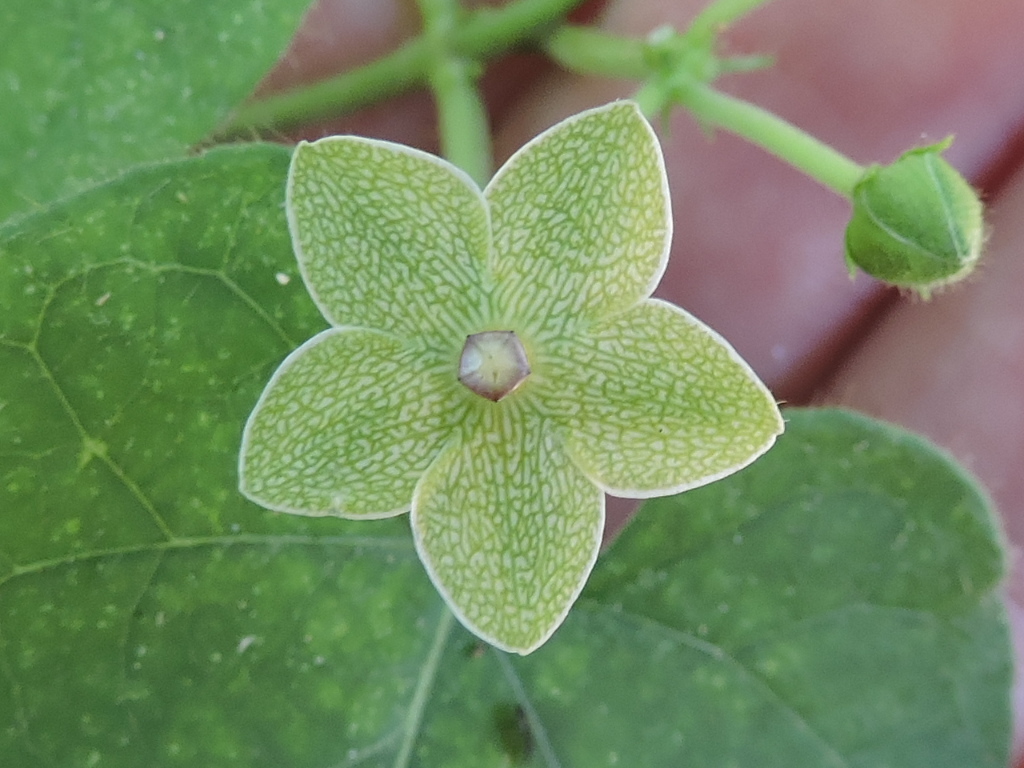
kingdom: Plantae
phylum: Tracheophyta
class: Magnoliopsida
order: Gentianales
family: Apocynaceae
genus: Dictyanthus
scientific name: Dictyanthus reticulatus
